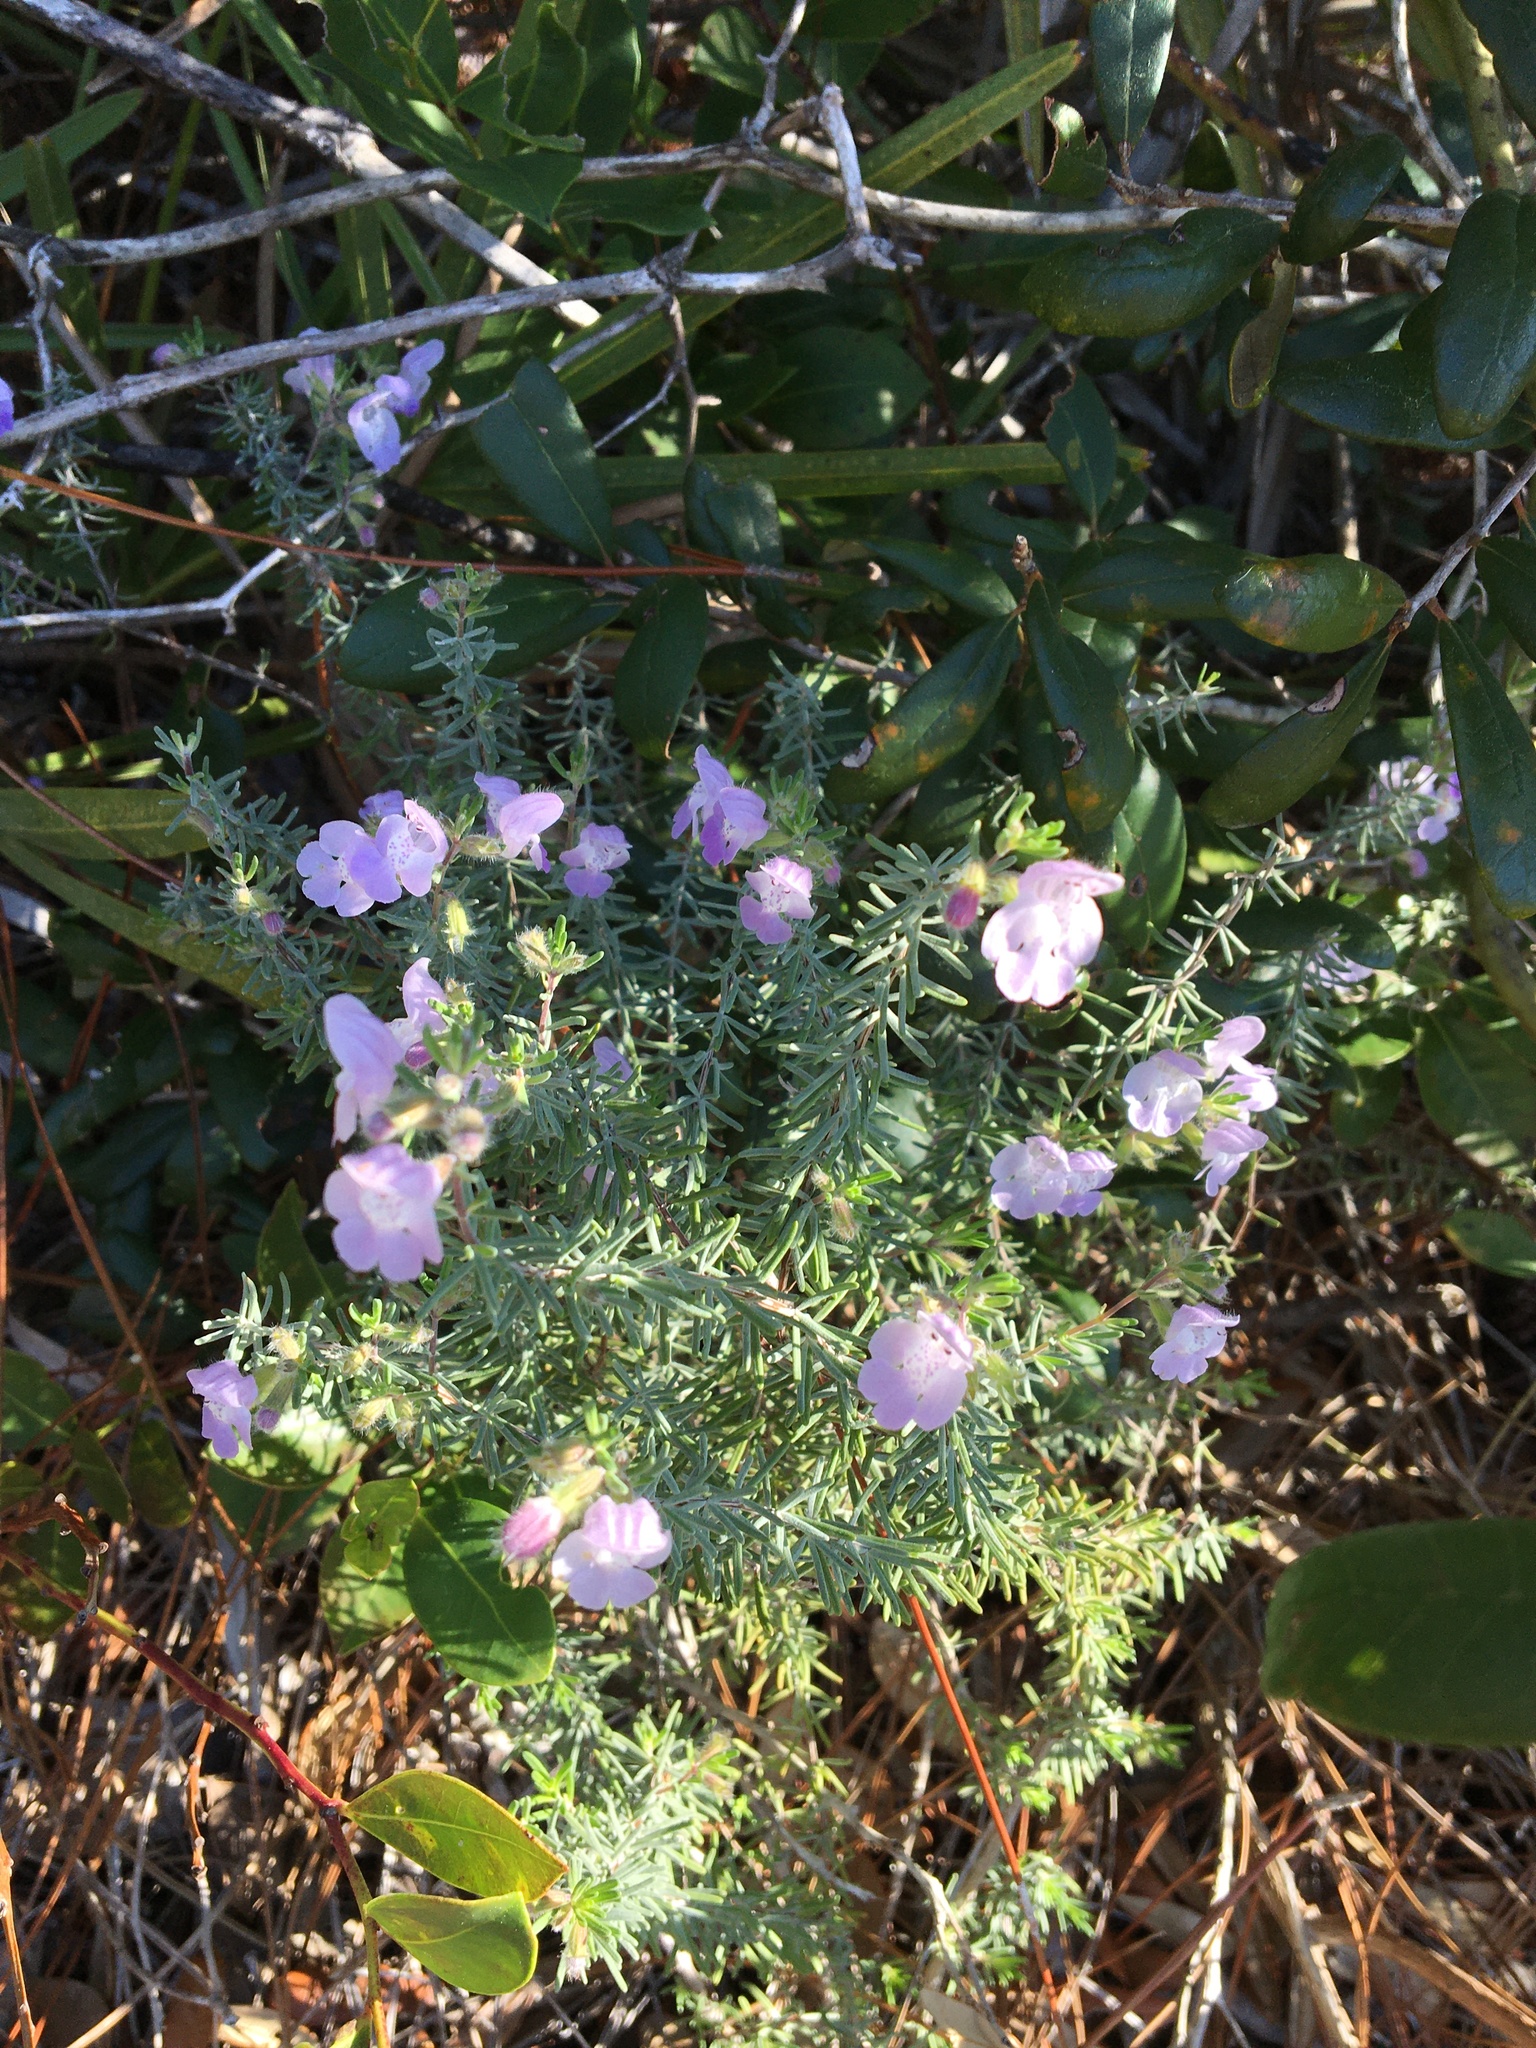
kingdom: Plantae
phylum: Tracheophyta
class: Magnoliopsida
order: Lamiales
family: Lamiaceae
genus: Conradina
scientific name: Conradina canescens
